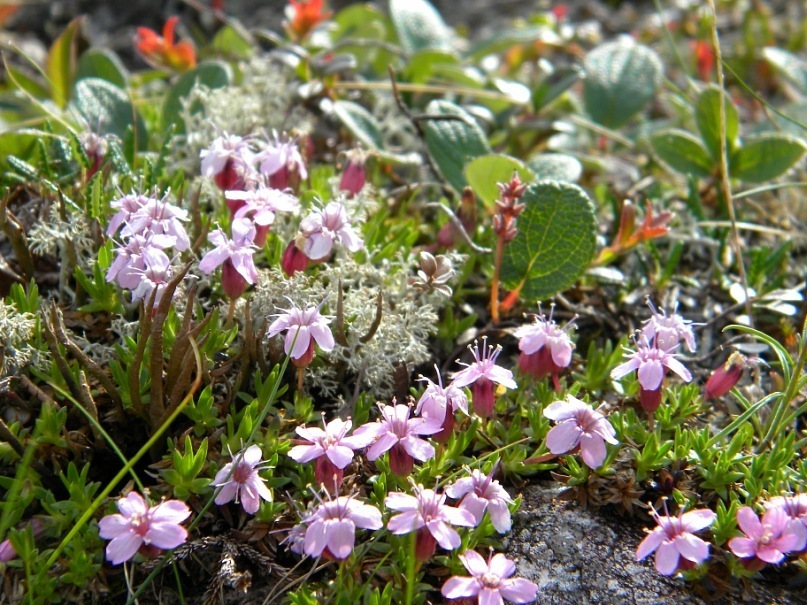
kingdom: Plantae
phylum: Tracheophyta
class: Magnoliopsida
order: Caryophyllales
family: Caryophyllaceae
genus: Silene
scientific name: Silene acaulis
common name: Moss campion
